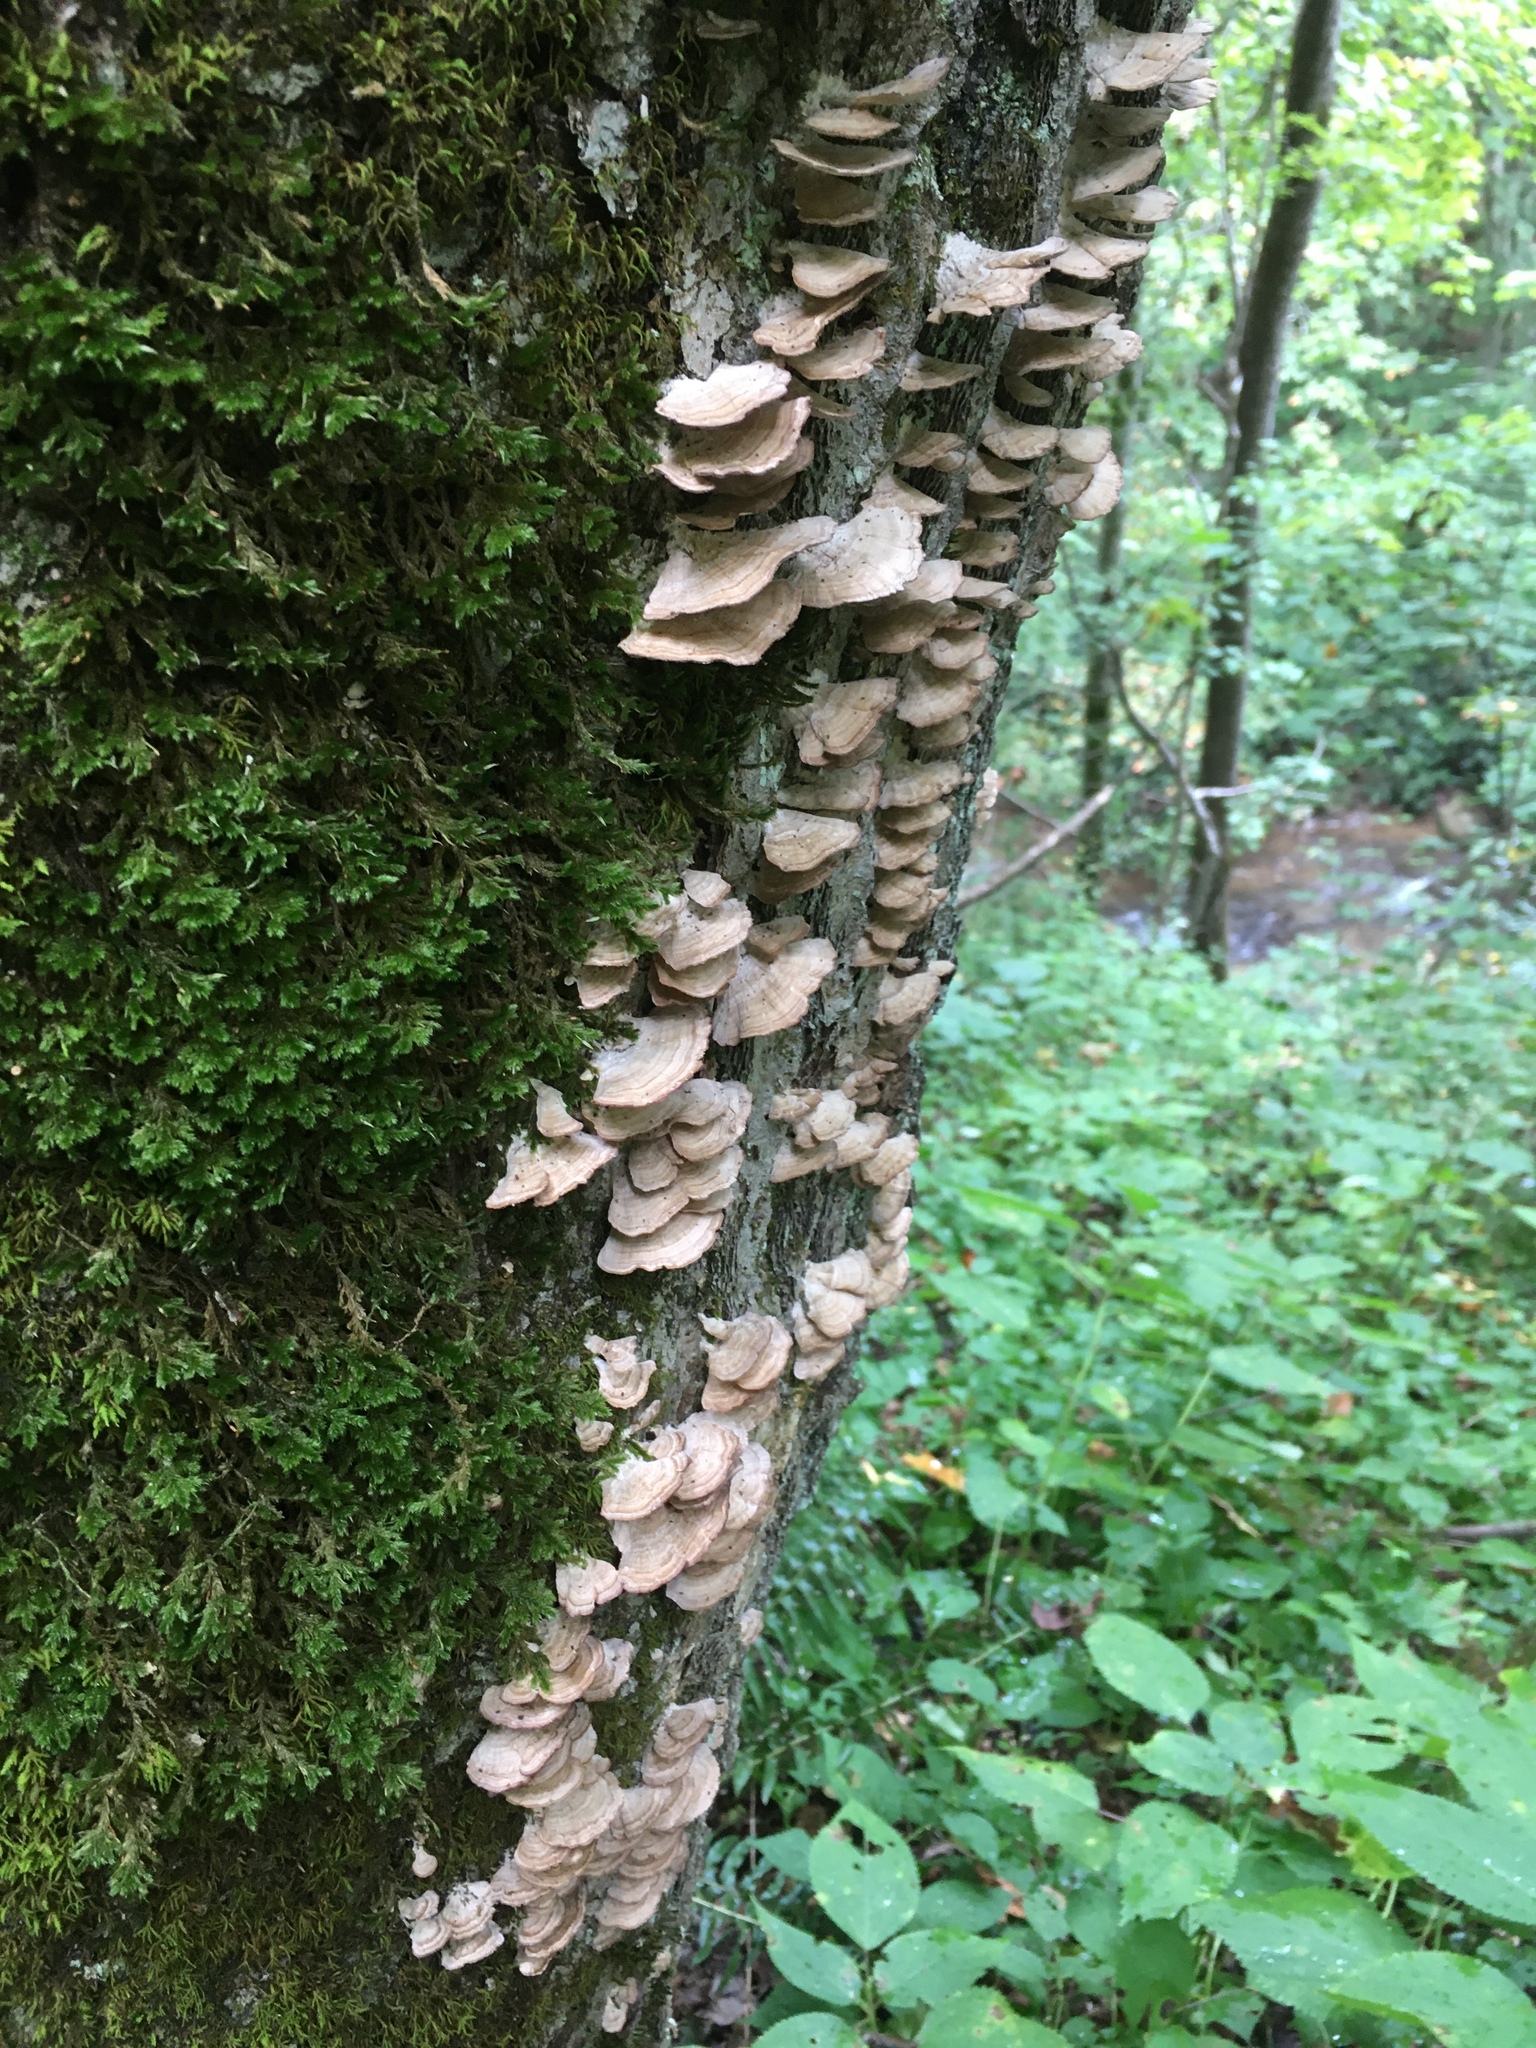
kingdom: Fungi
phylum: Basidiomycota
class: Agaricomycetes
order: Hymenochaetales
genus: Trichaptum
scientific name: Trichaptum biforme
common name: Violet-toothed polypore
